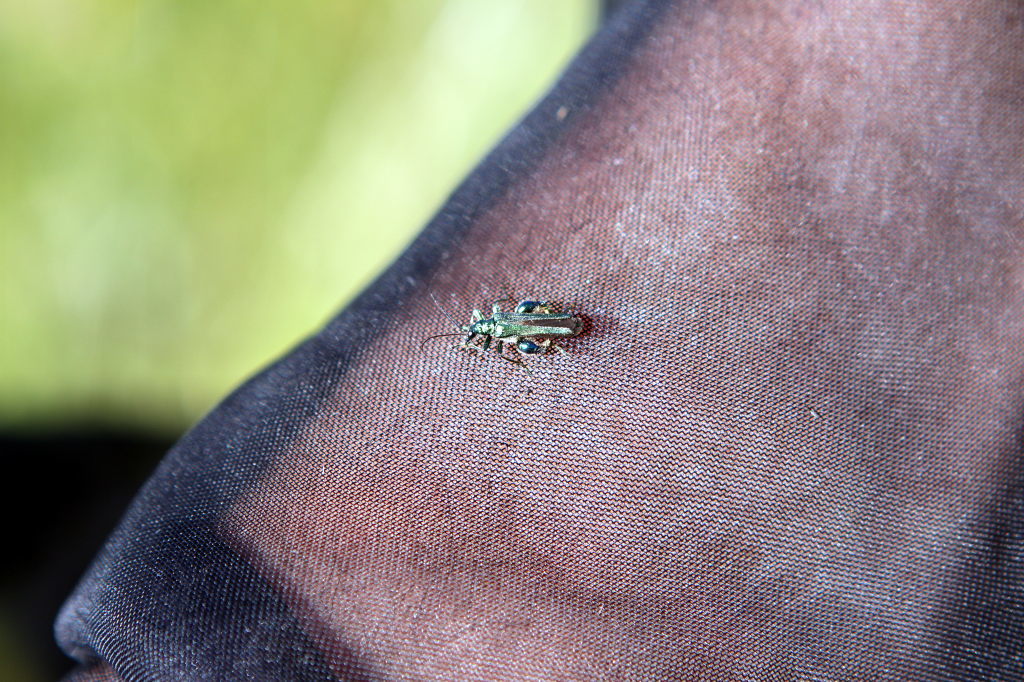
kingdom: Animalia
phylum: Arthropoda
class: Insecta
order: Coleoptera
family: Oedemeridae
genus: Oedemera
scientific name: Oedemera nobilis
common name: Swollen-thighed beetle
